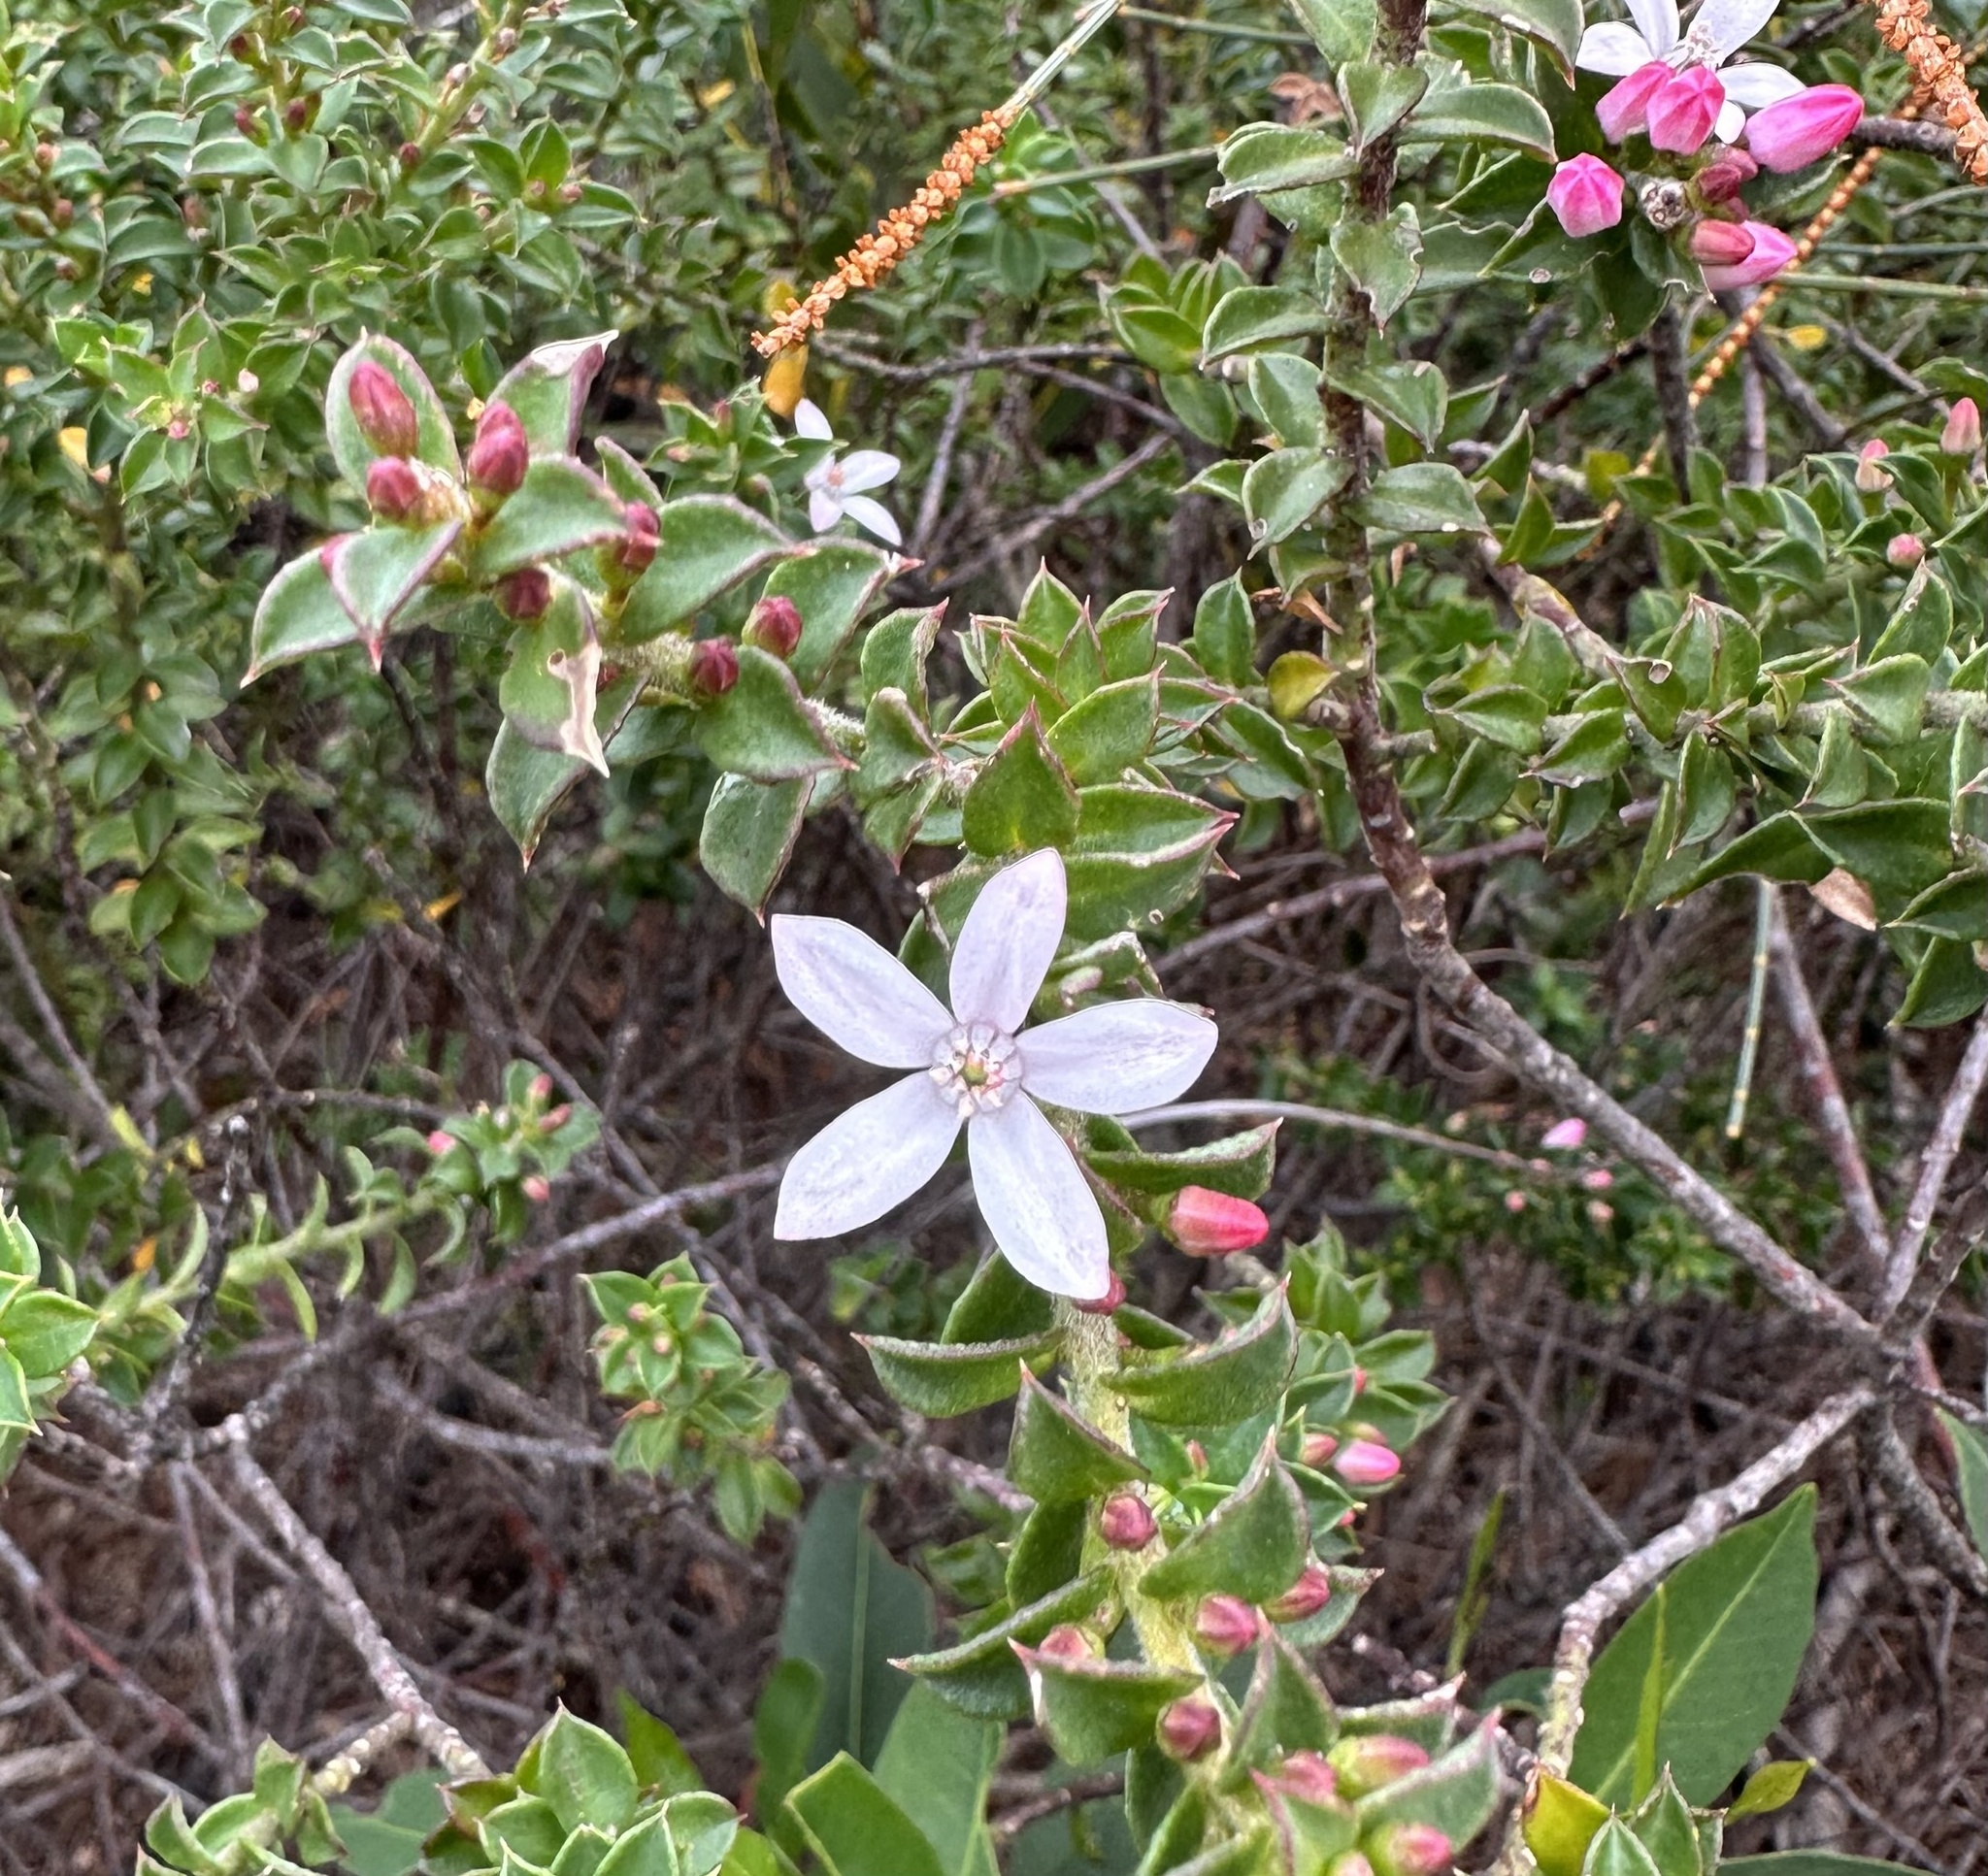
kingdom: Plantae
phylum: Tracheophyta
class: Magnoliopsida
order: Sapindales
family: Rutaceae
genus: Philotheca
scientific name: Philotheca buxifolia
